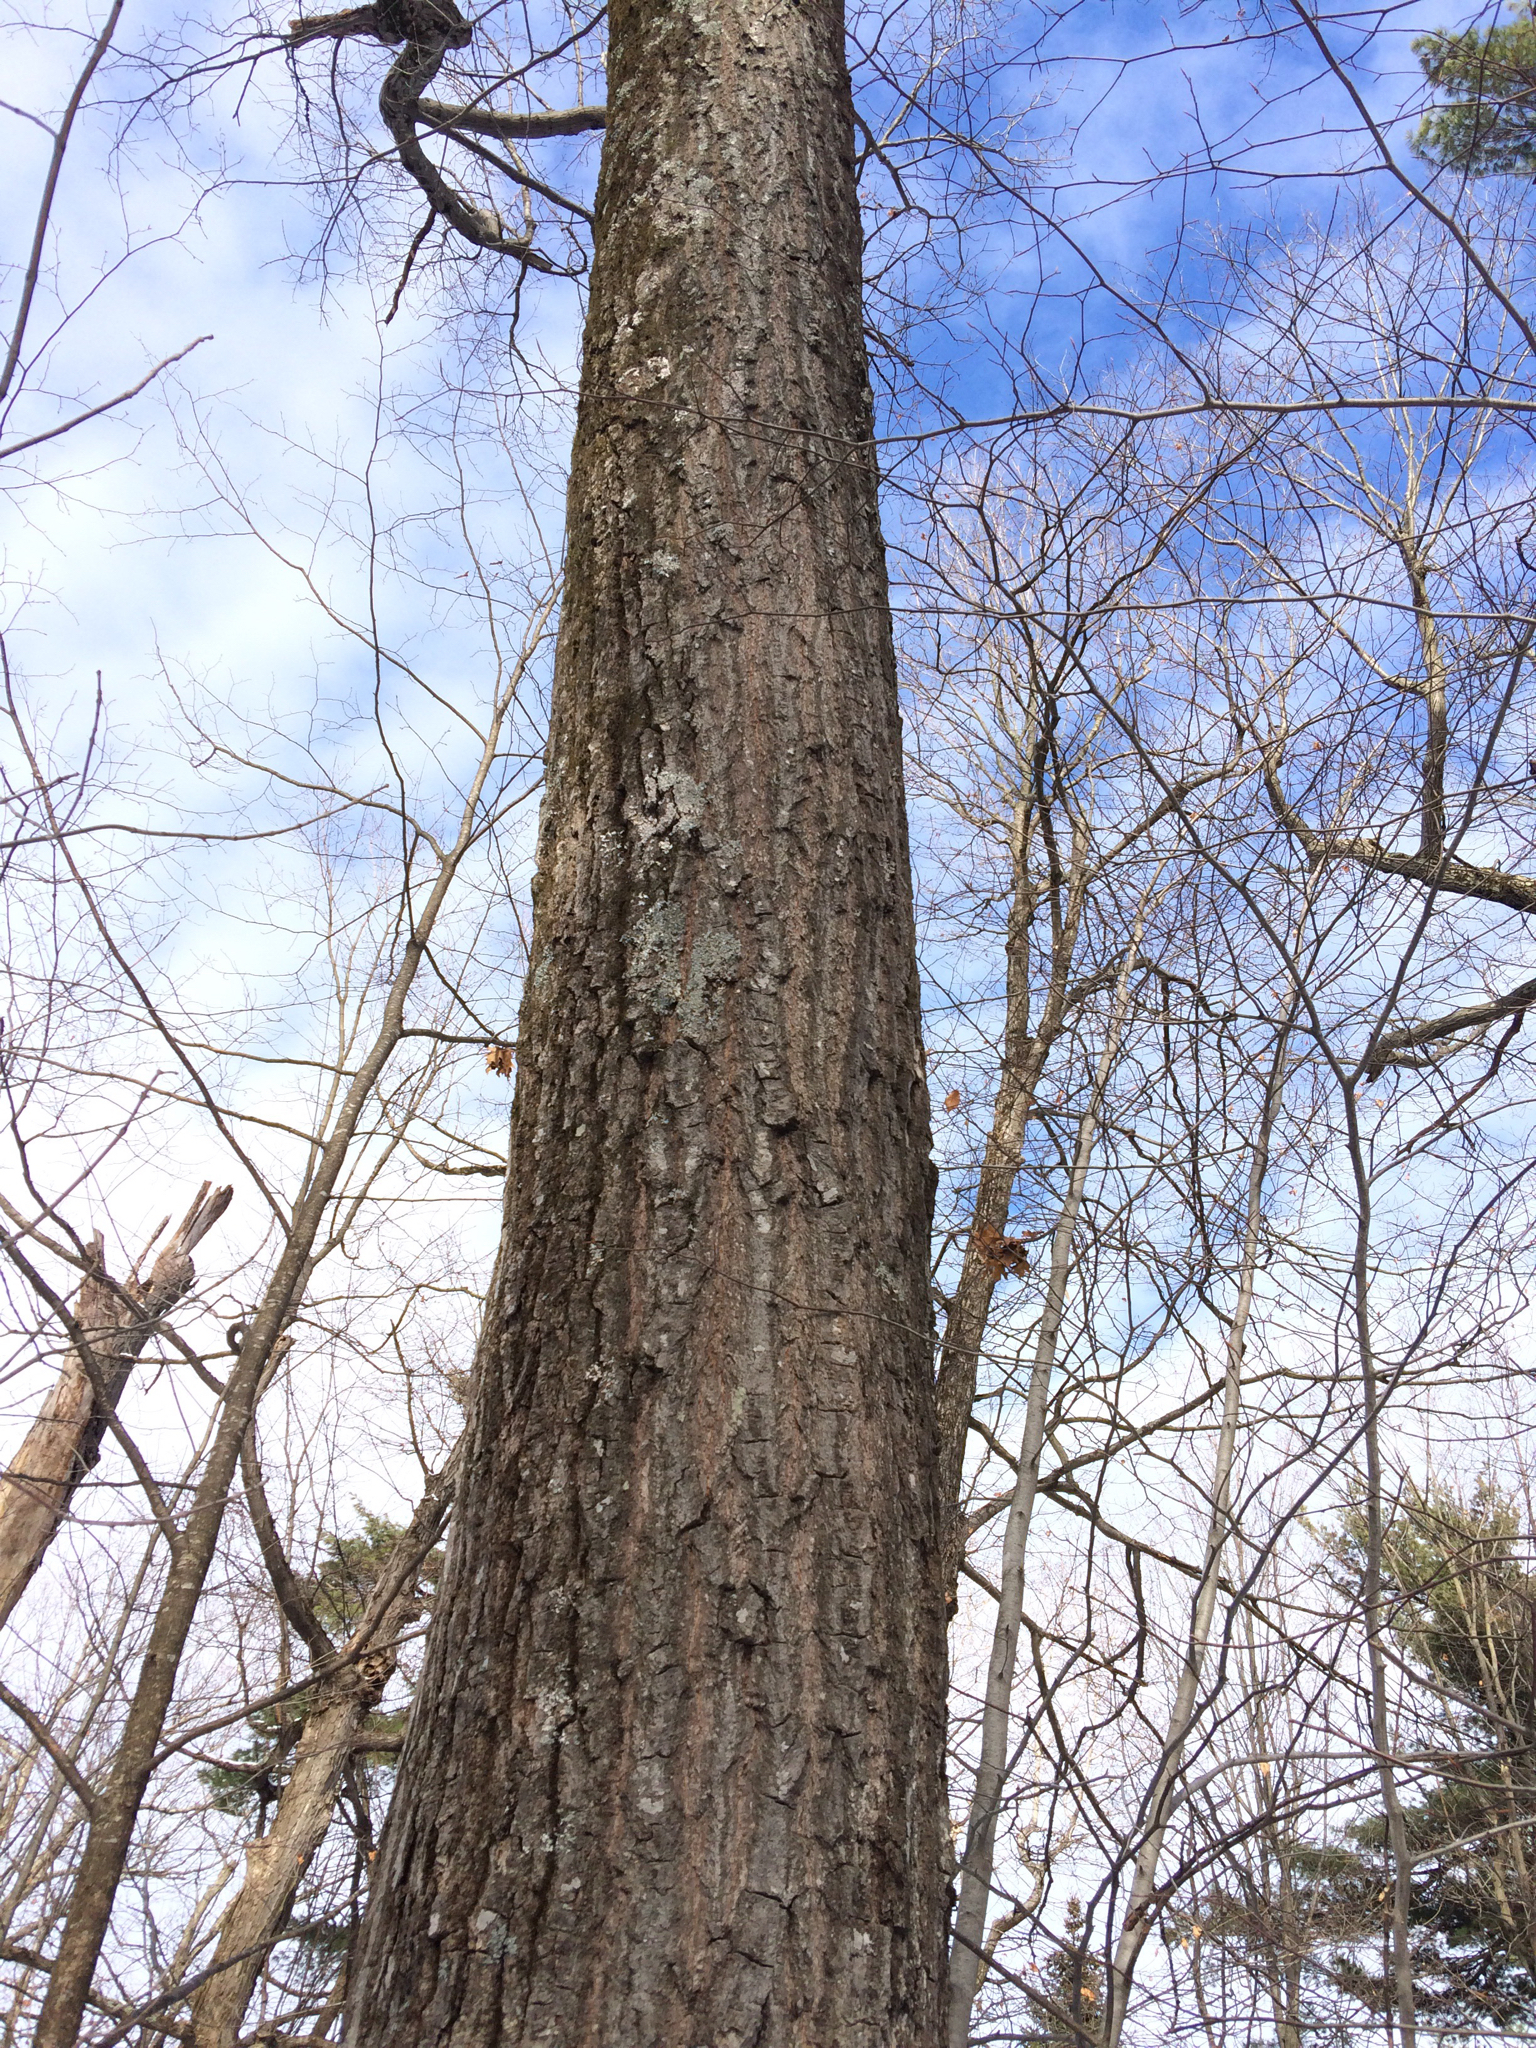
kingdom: Plantae
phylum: Tracheophyta
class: Magnoliopsida
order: Fagales
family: Fagaceae
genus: Quercus
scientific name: Quercus rubra
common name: Red oak
